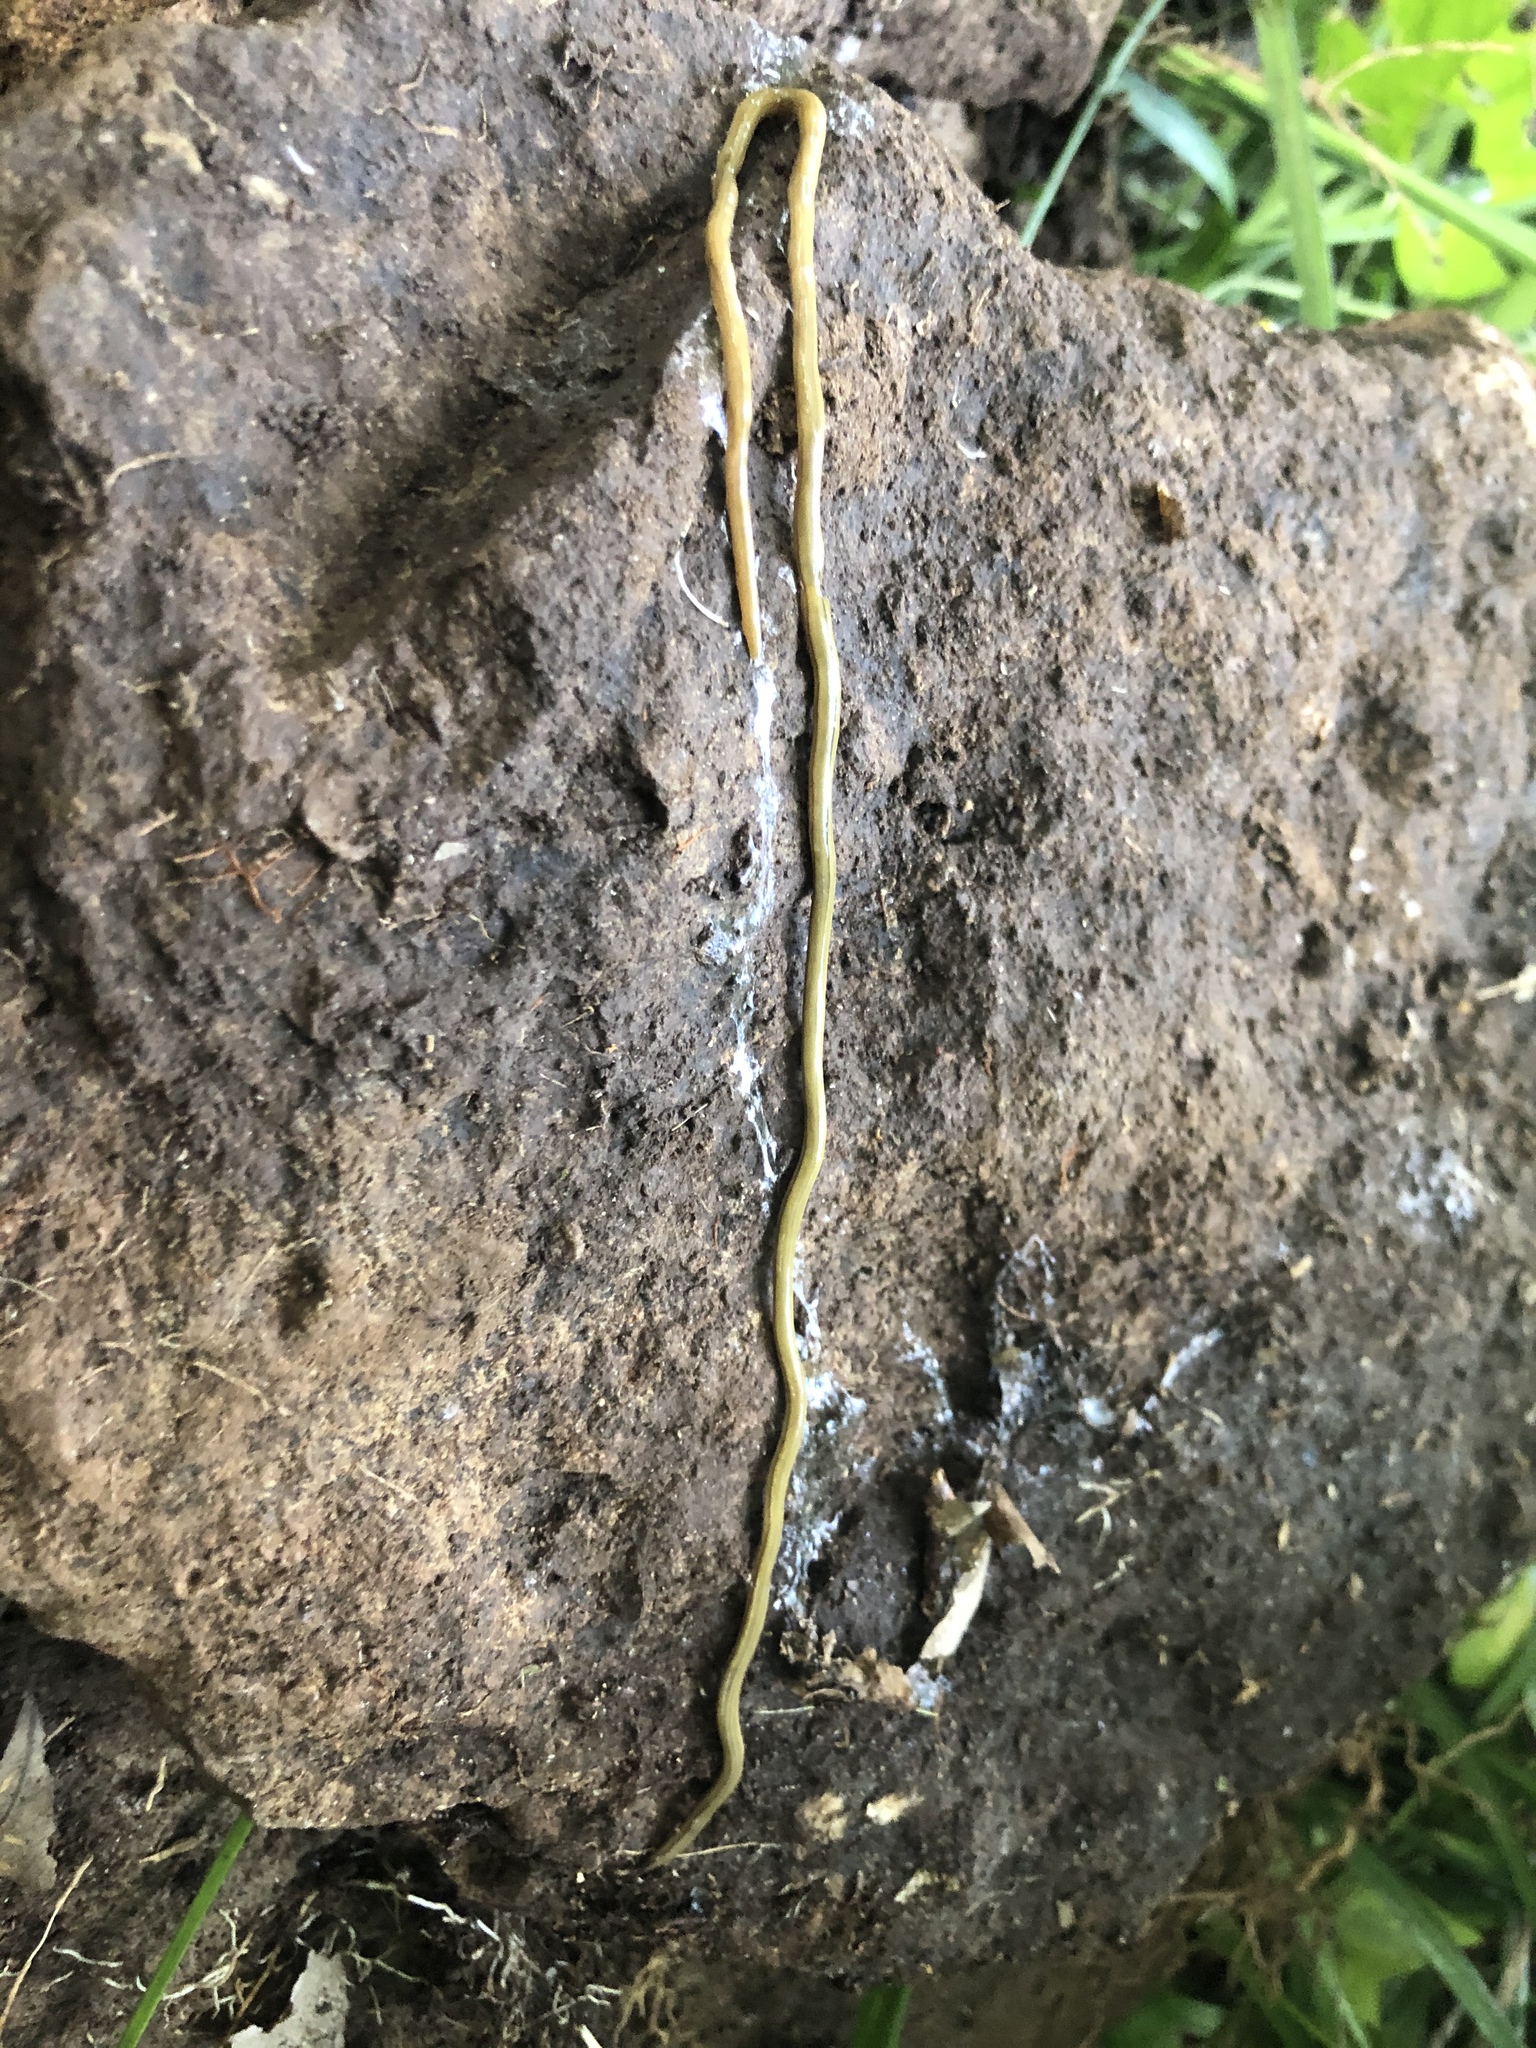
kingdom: Animalia
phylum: Platyhelminthes
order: Tricladida
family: Geoplanidae
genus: Bipalium
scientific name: Bipalium kewense
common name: Hammerhead flatworm
